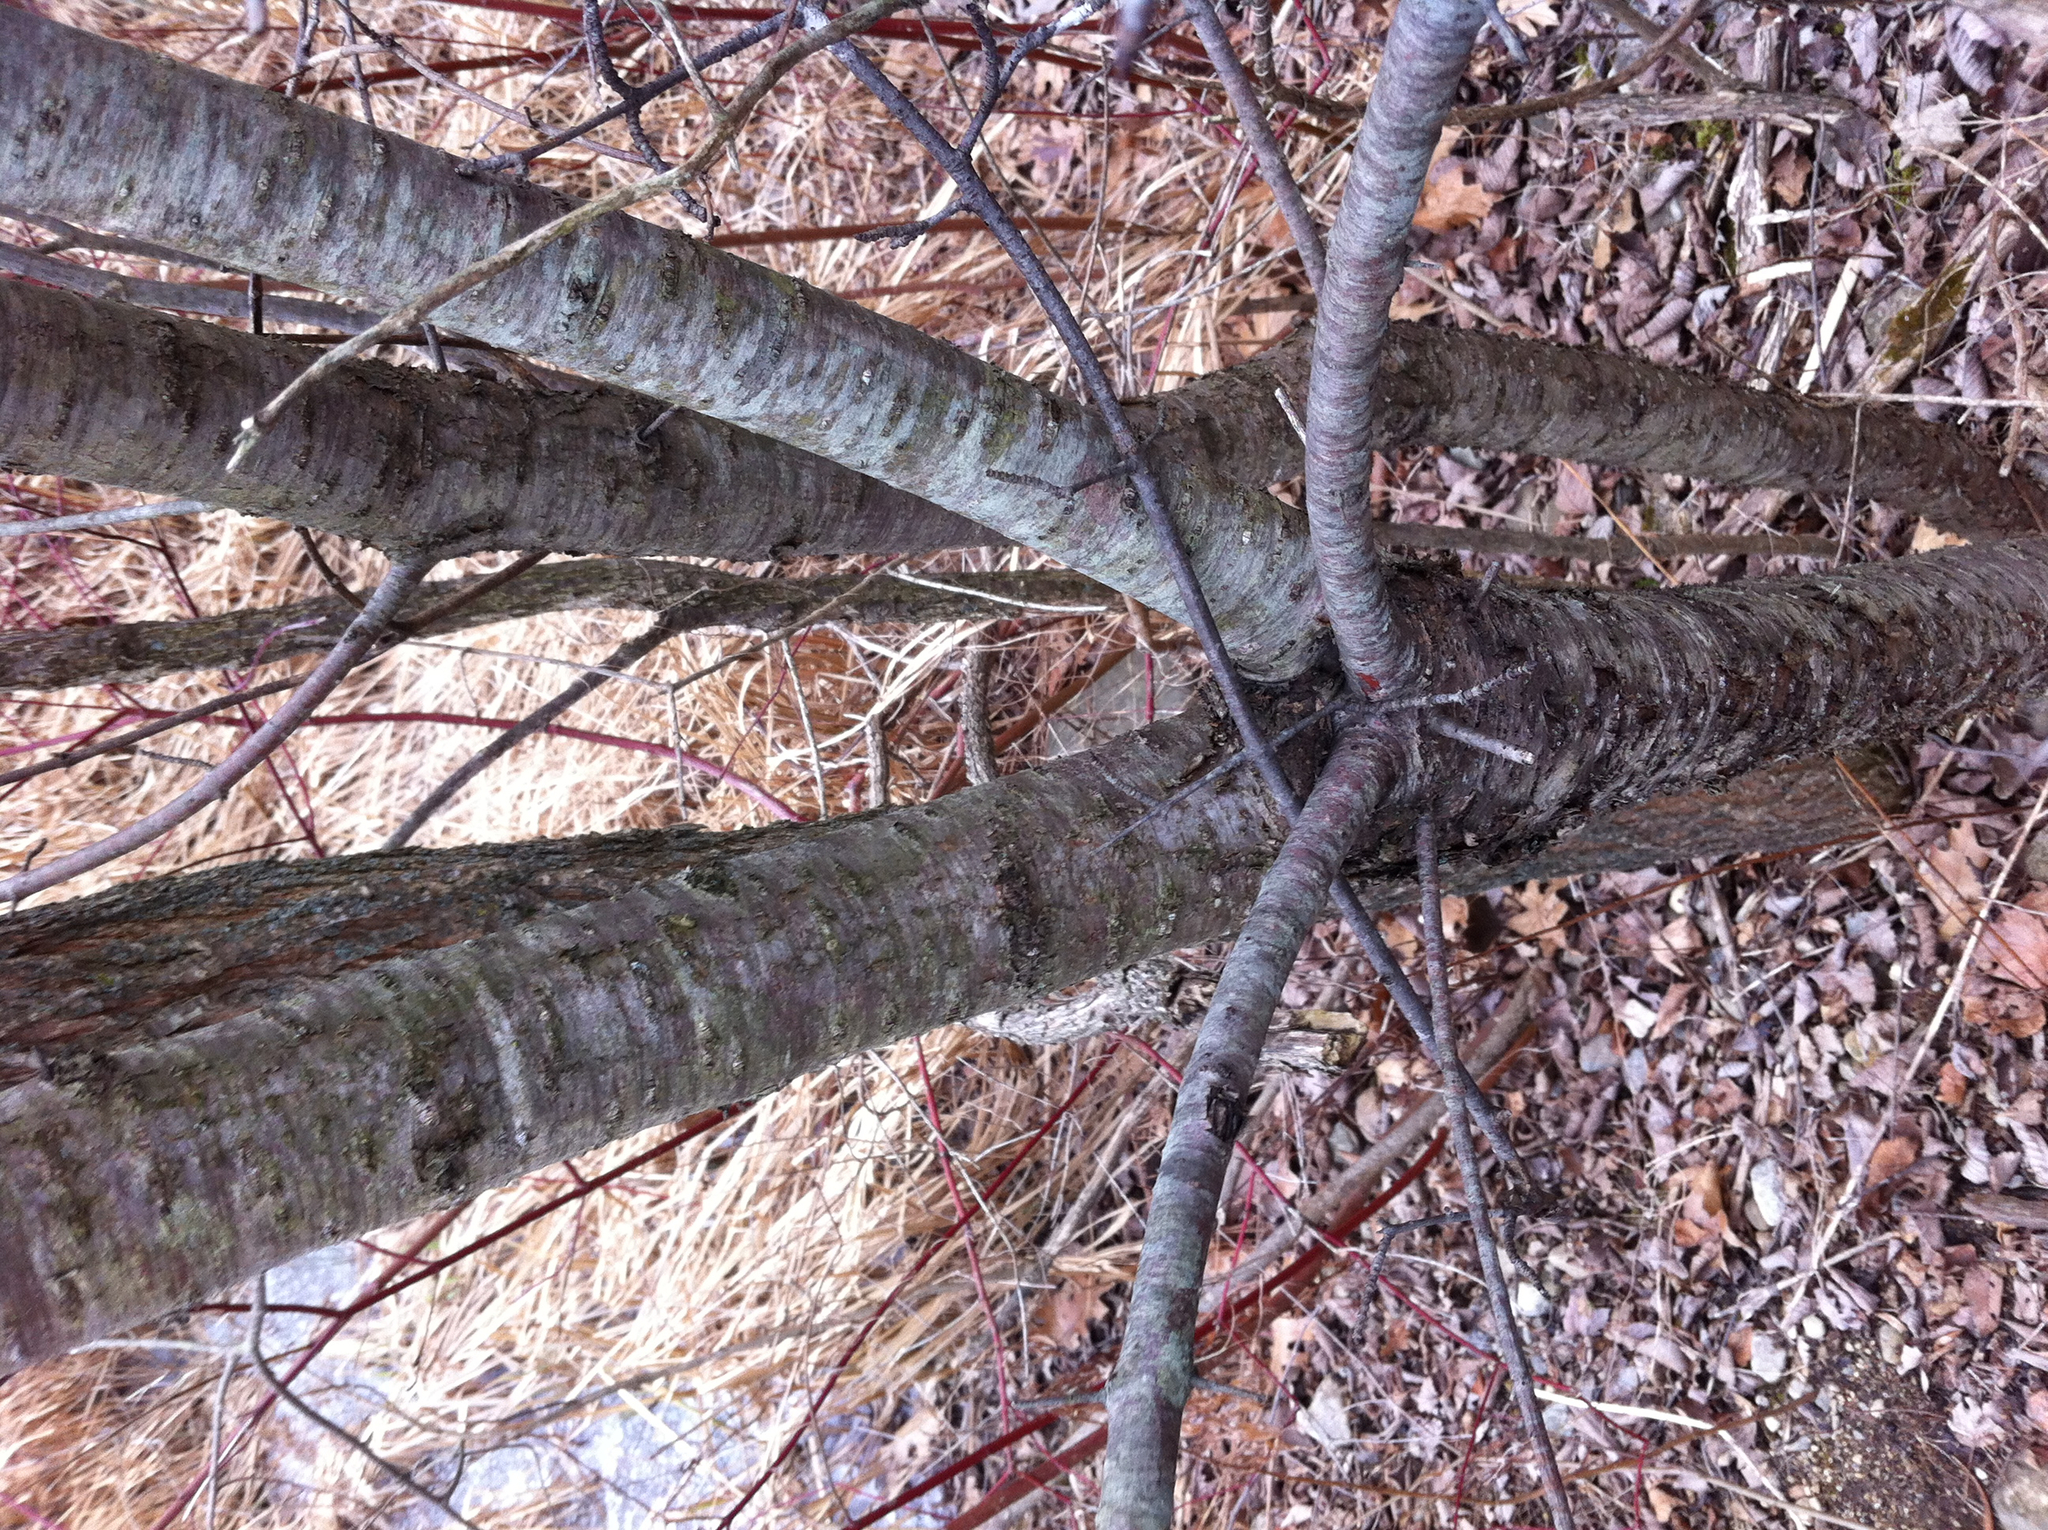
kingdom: Plantae
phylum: Tracheophyta
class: Magnoliopsida
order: Rosales
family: Rhamnaceae
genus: Rhamnus
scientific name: Rhamnus cathartica
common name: Common buckthorn
